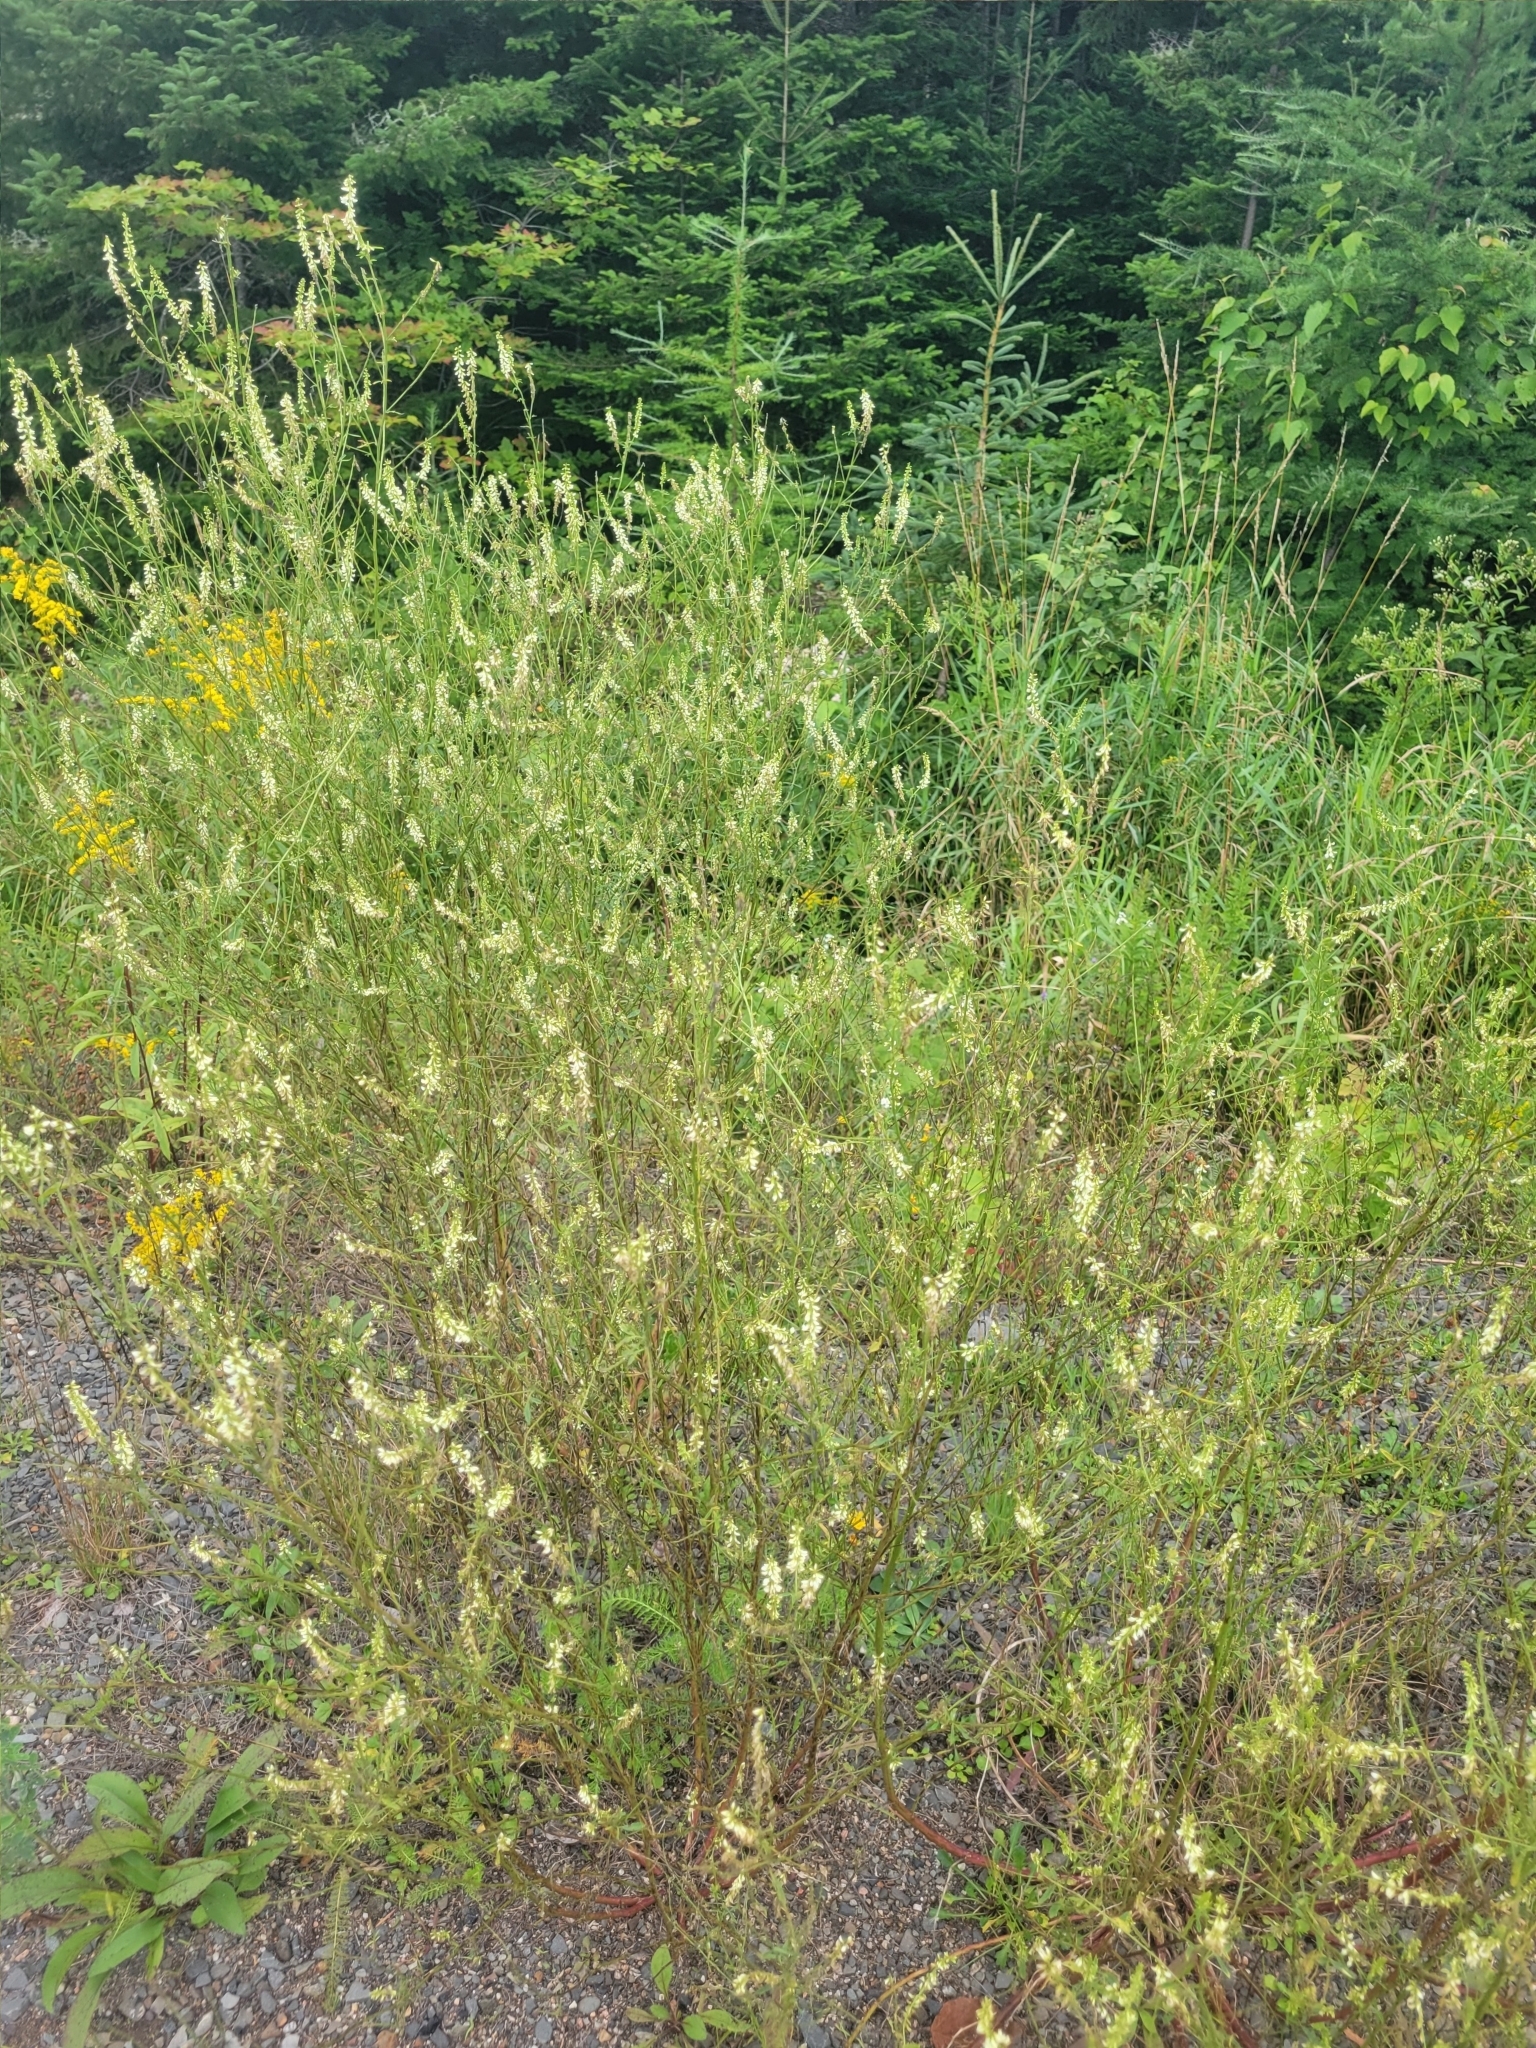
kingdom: Plantae
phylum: Tracheophyta
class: Magnoliopsida
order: Fabales
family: Fabaceae
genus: Melilotus
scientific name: Melilotus albus
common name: White melilot
